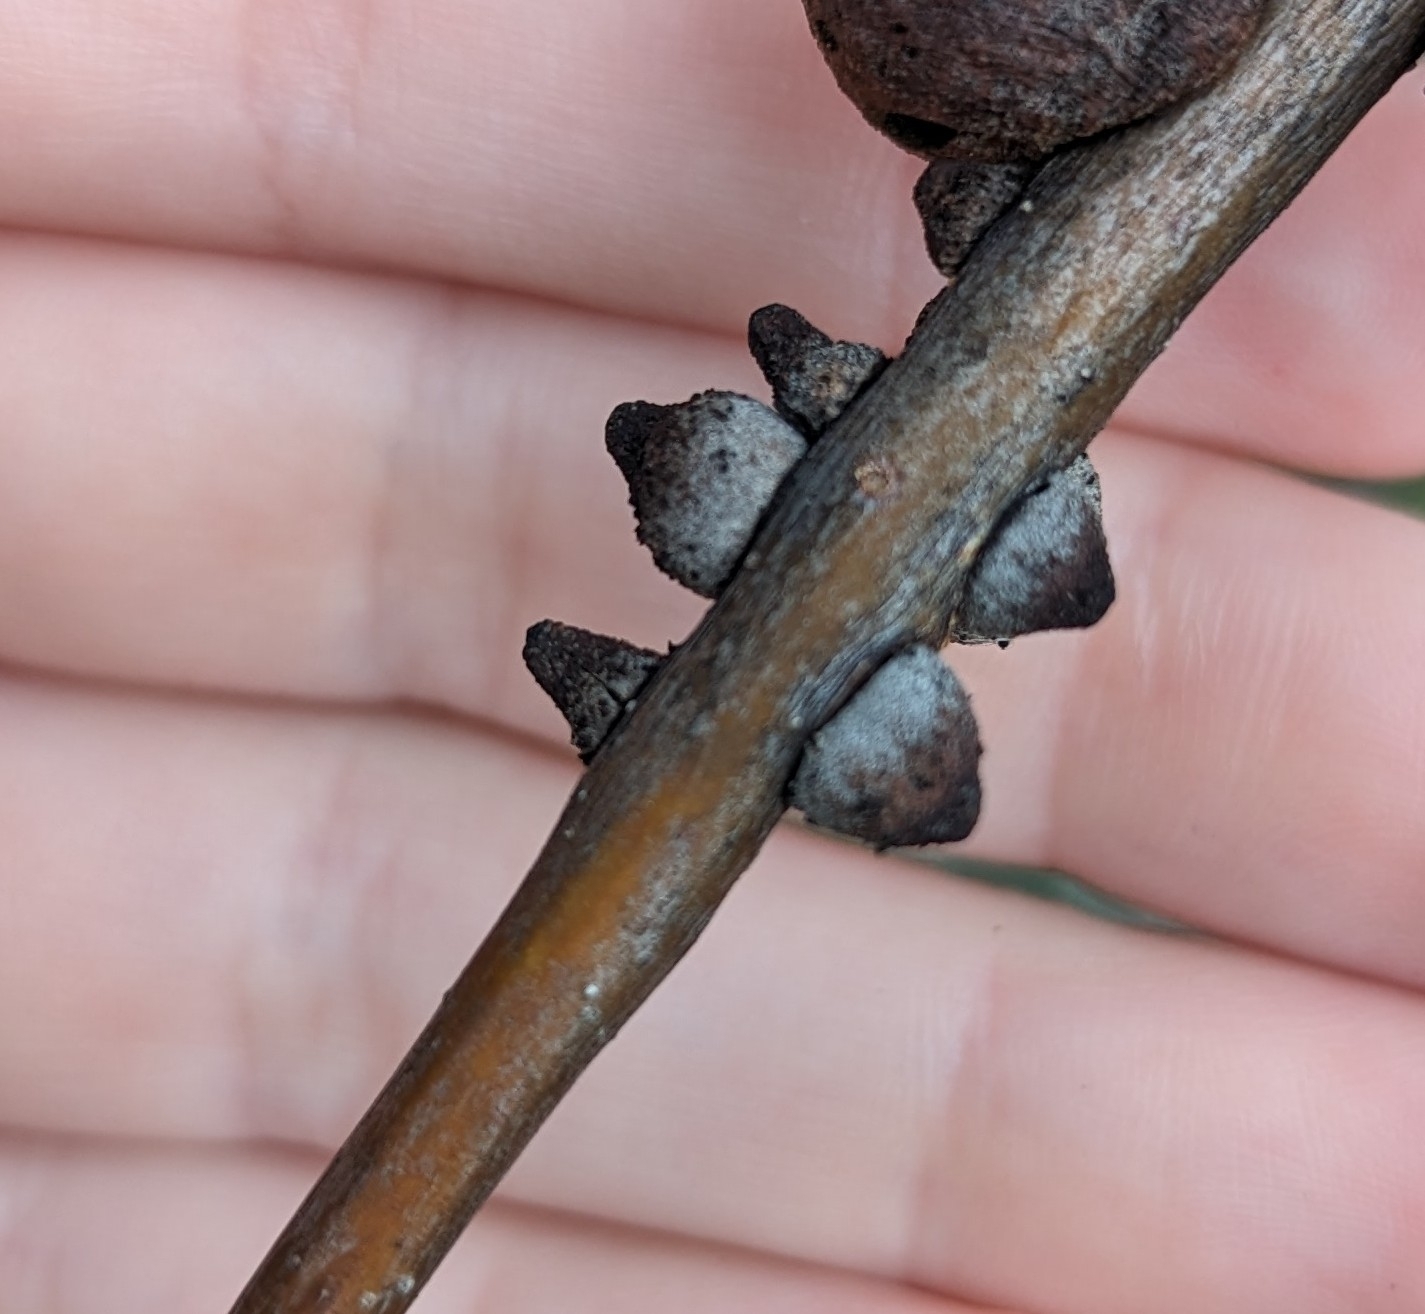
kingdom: Animalia
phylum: Arthropoda
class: Insecta
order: Hymenoptera
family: Cynipidae
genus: Disholcaspis
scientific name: Disholcaspis
